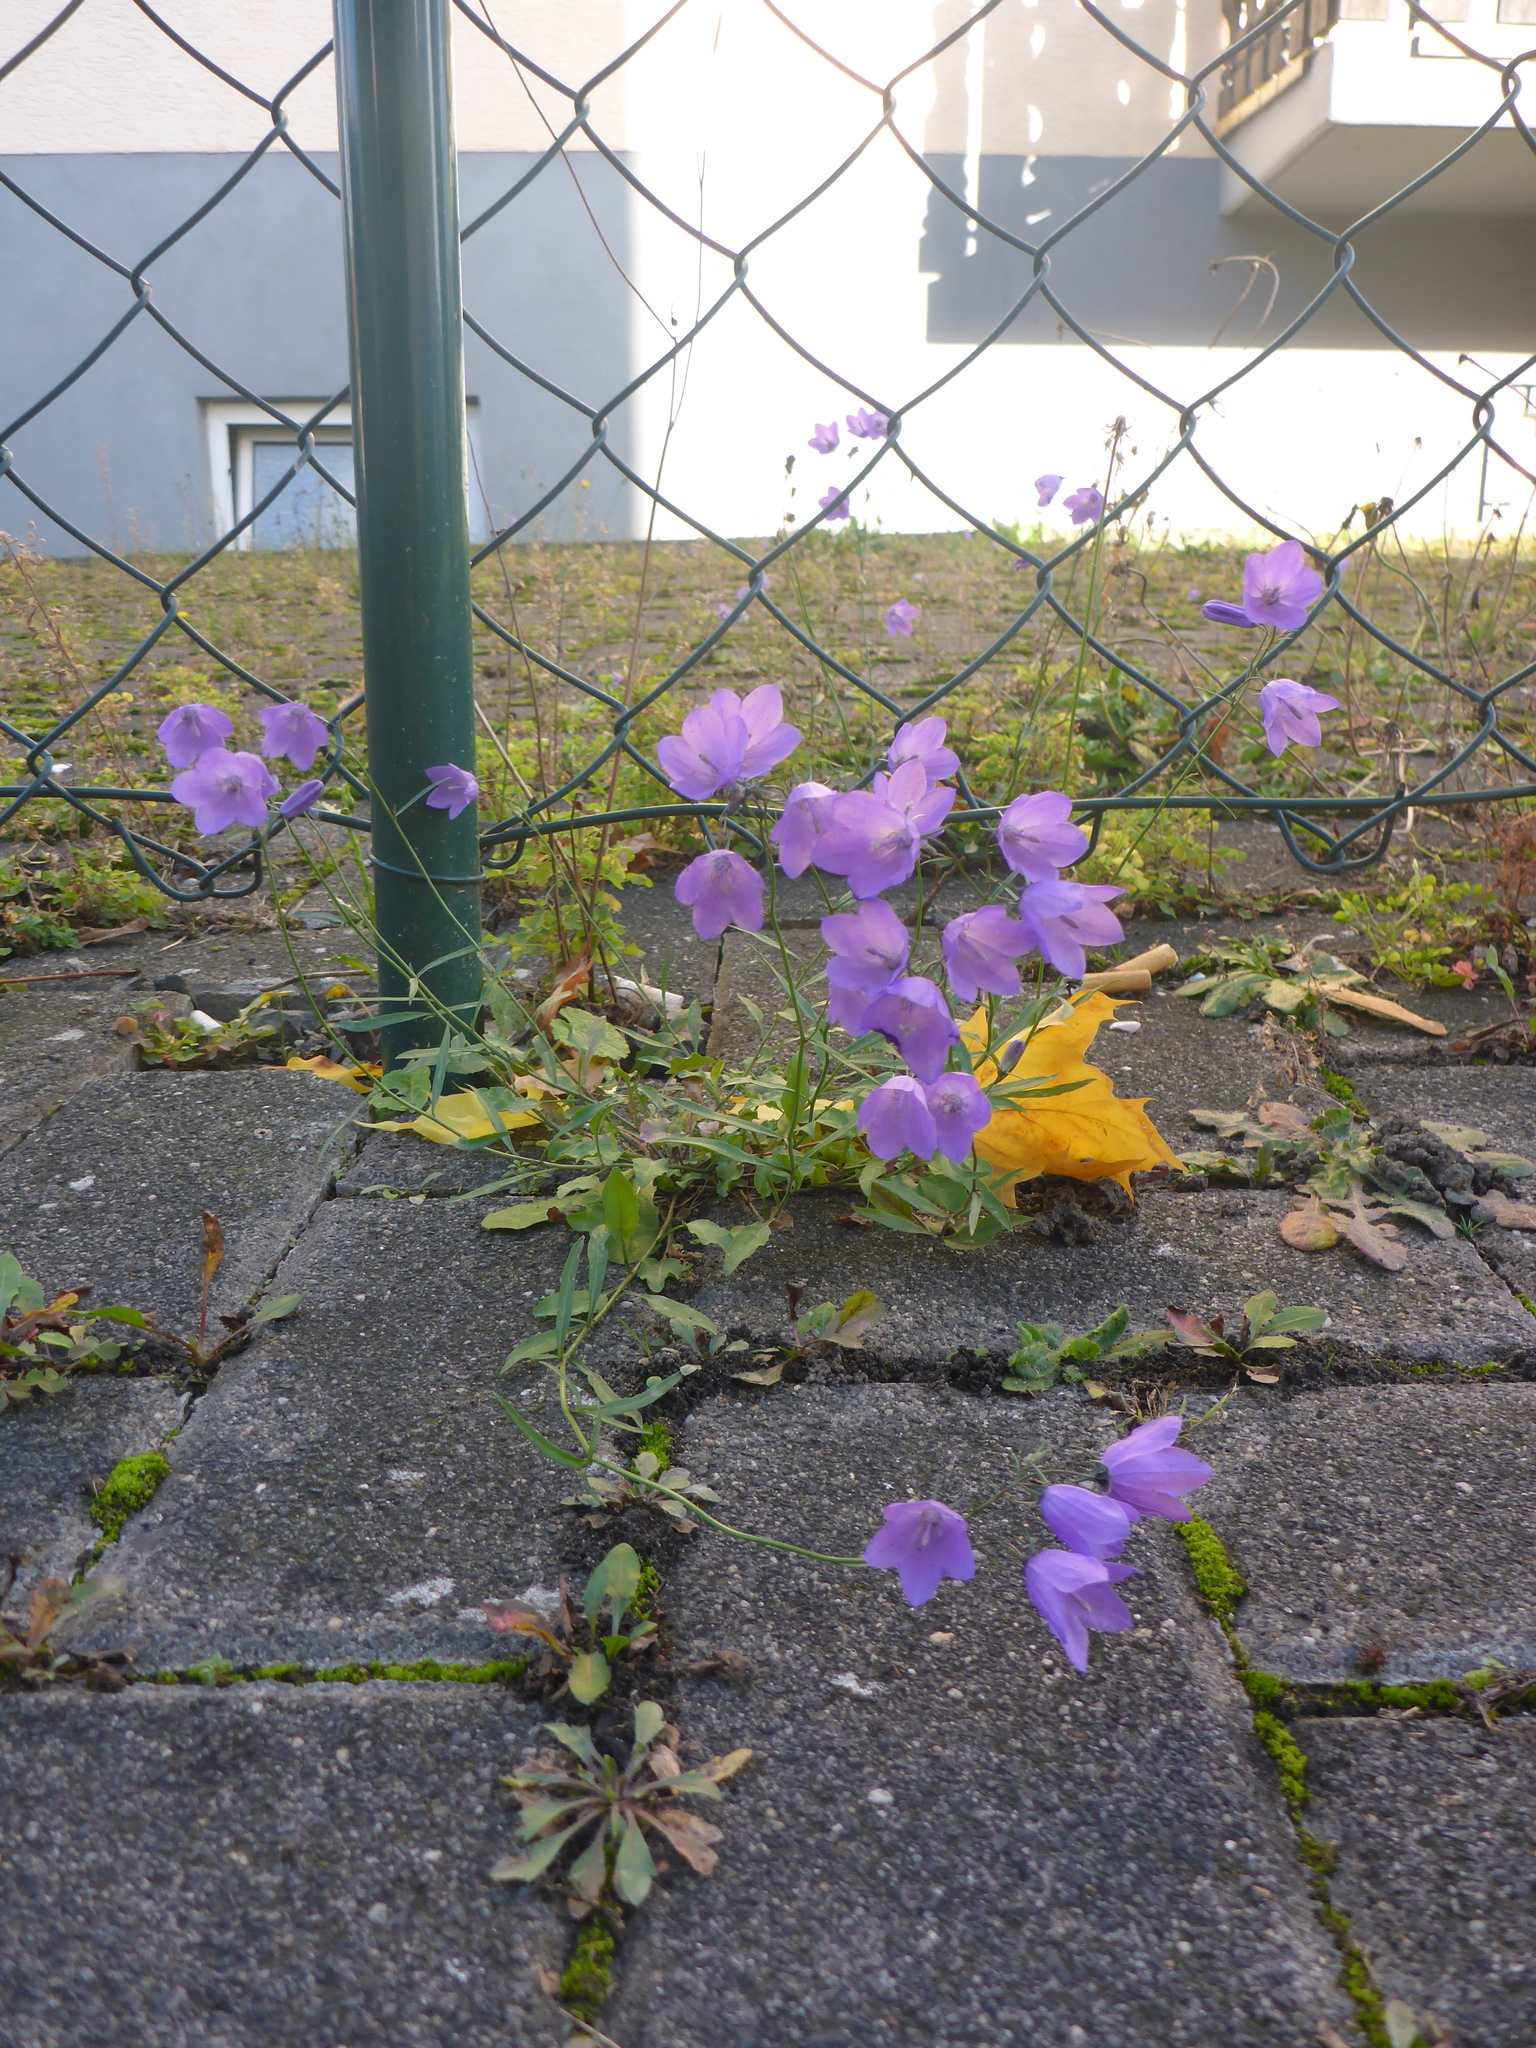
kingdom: Plantae
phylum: Tracheophyta
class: Magnoliopsida
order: Asterales
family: Campanulaceae
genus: Campanula
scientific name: Campanula rotundifolia
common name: Harebell
